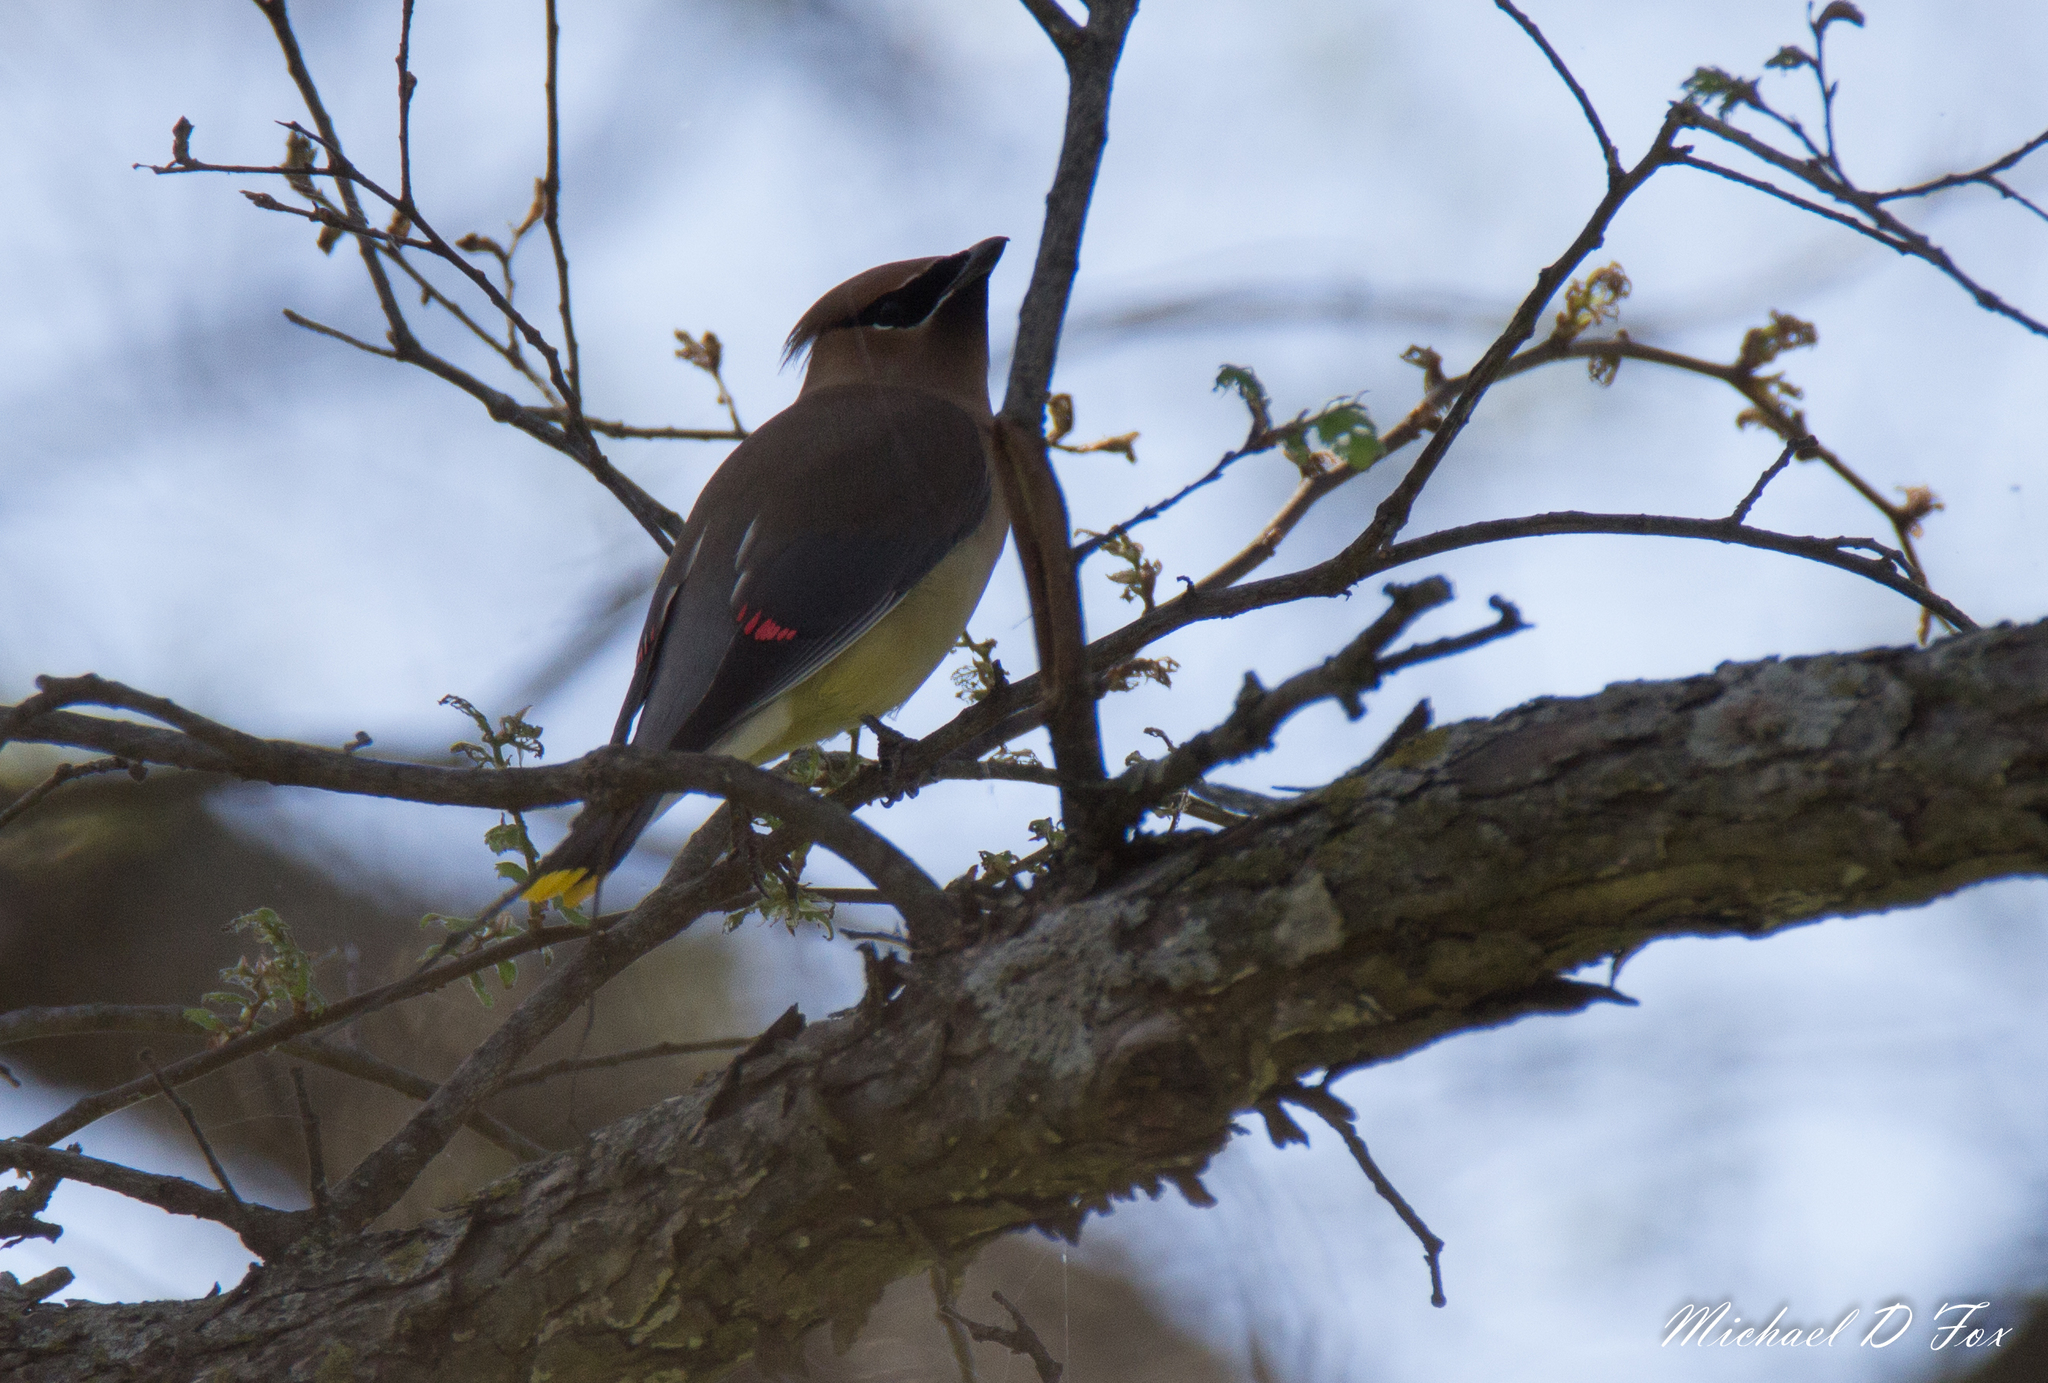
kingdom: Animalia
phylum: Chordata
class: Aves
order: Passeriformes
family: Bombycillidae
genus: Bombycilla
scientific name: Bombycilla cedrorum
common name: Cedar waxwing
